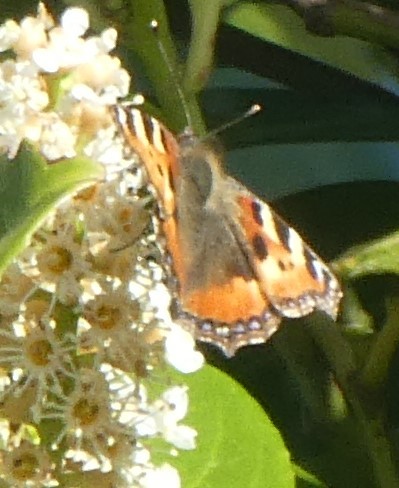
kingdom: Animalia
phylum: Arthropoda
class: Insecta
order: Lepidoptera
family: Nymphalidae
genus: Aglais
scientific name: Aglais urticae
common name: Small tortoiseshell
